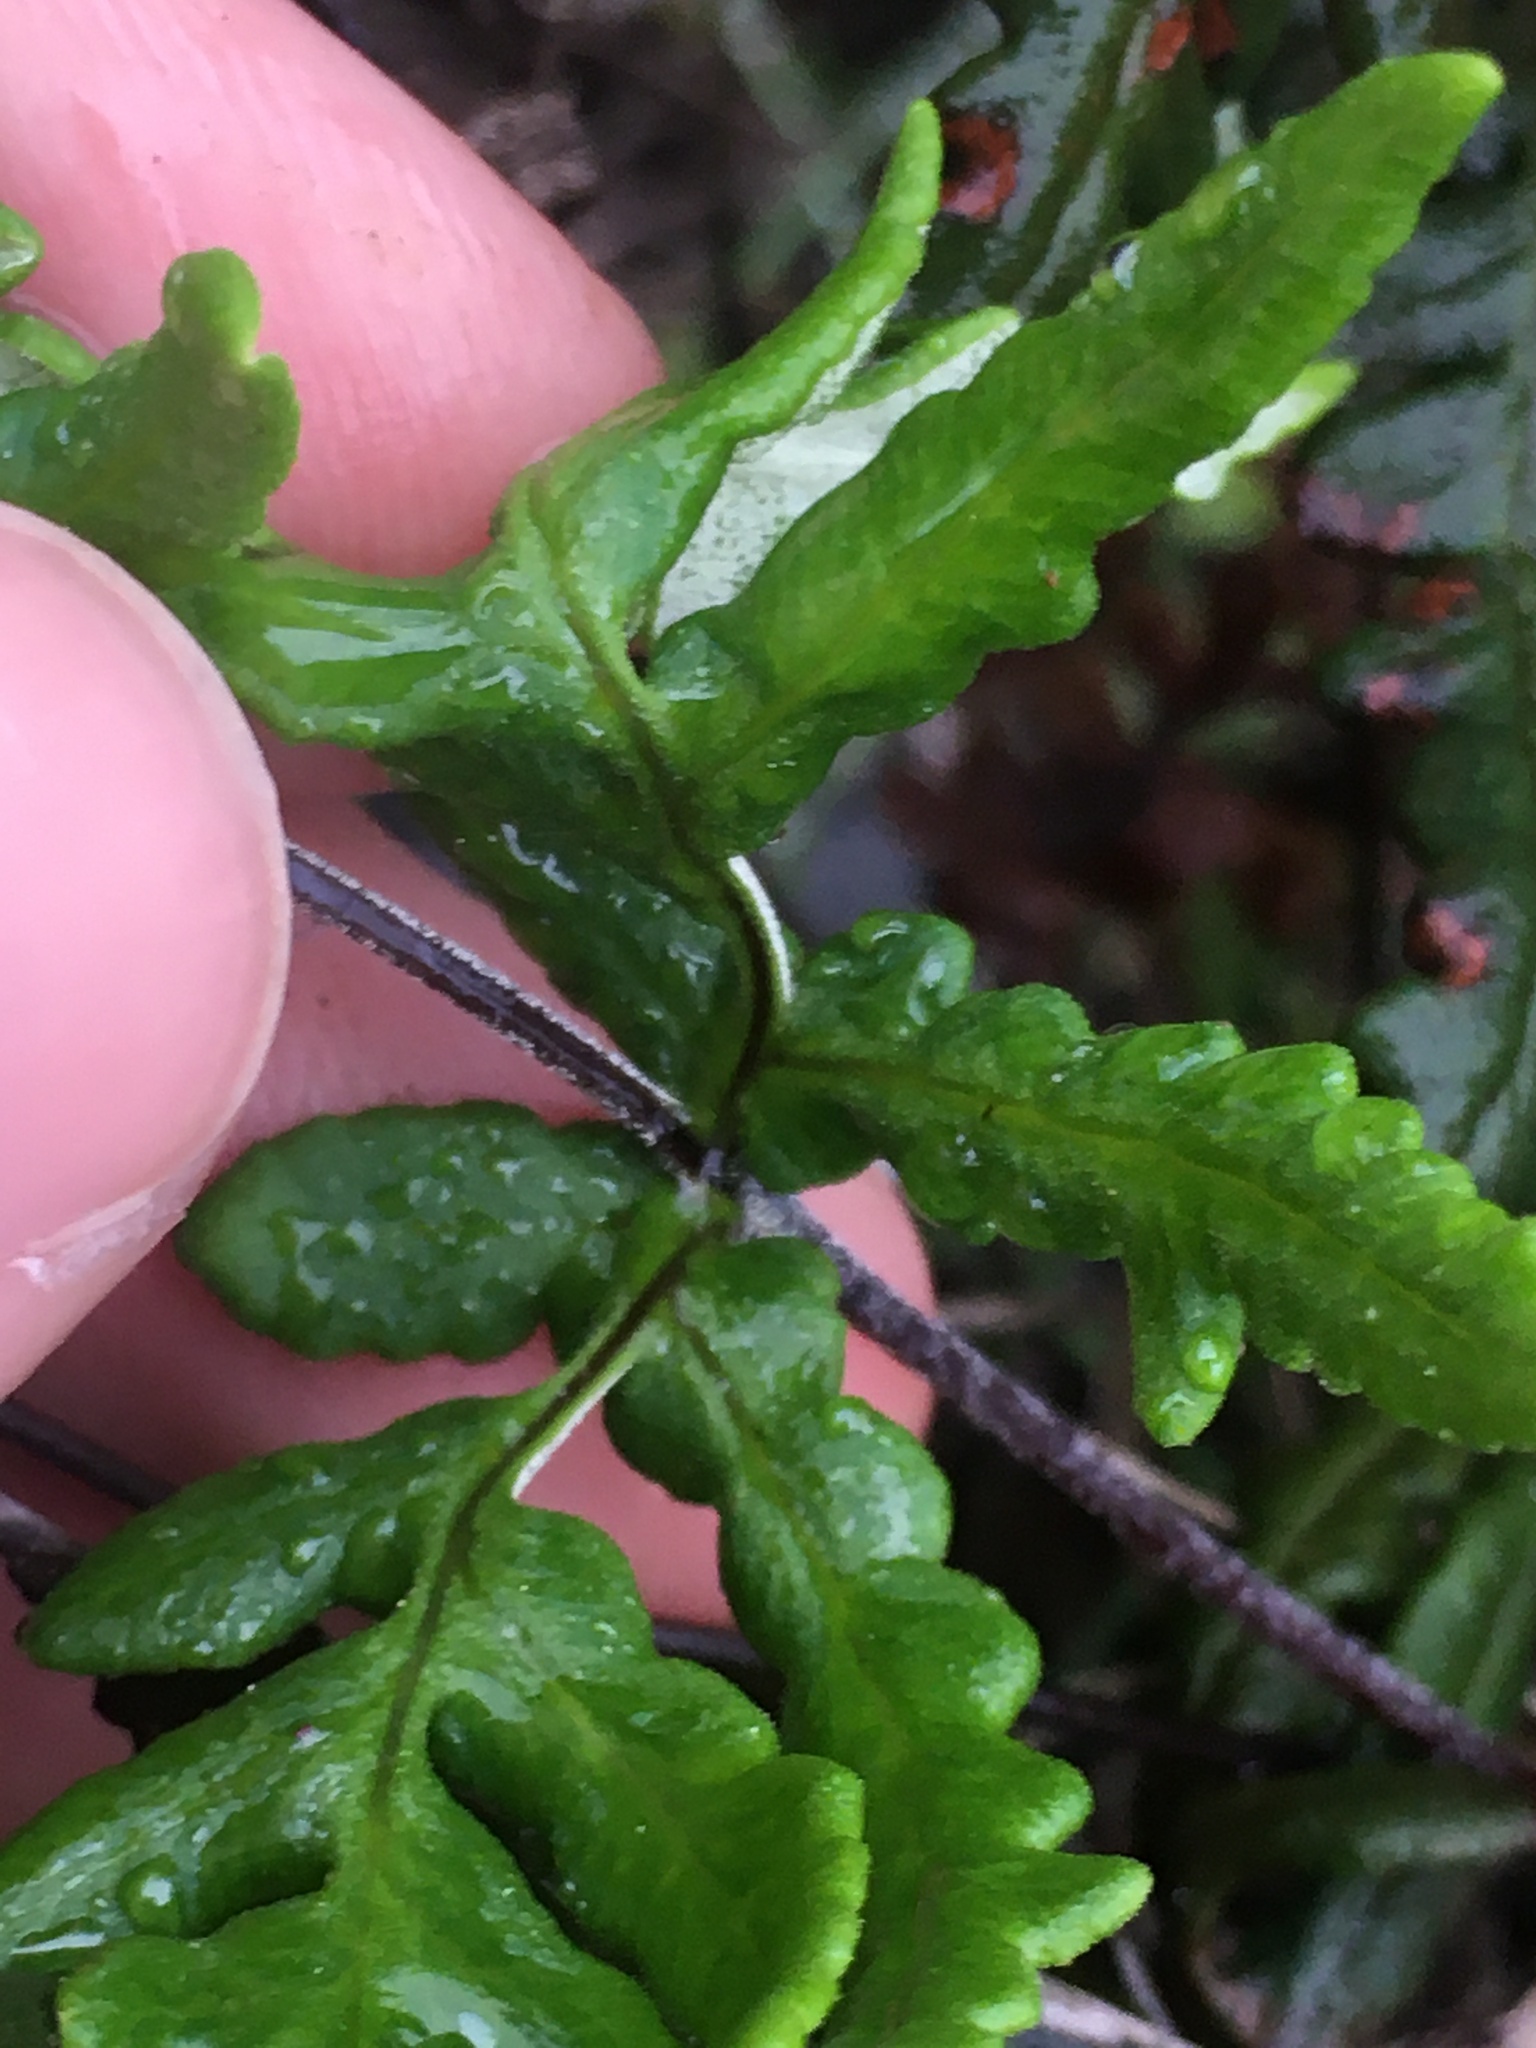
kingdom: Plantae
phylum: Tracheophyta
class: Polypodiopsida
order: Polypodiales
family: Pteridaceae
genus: Pentagramma
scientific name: Pentagramma viscosa
